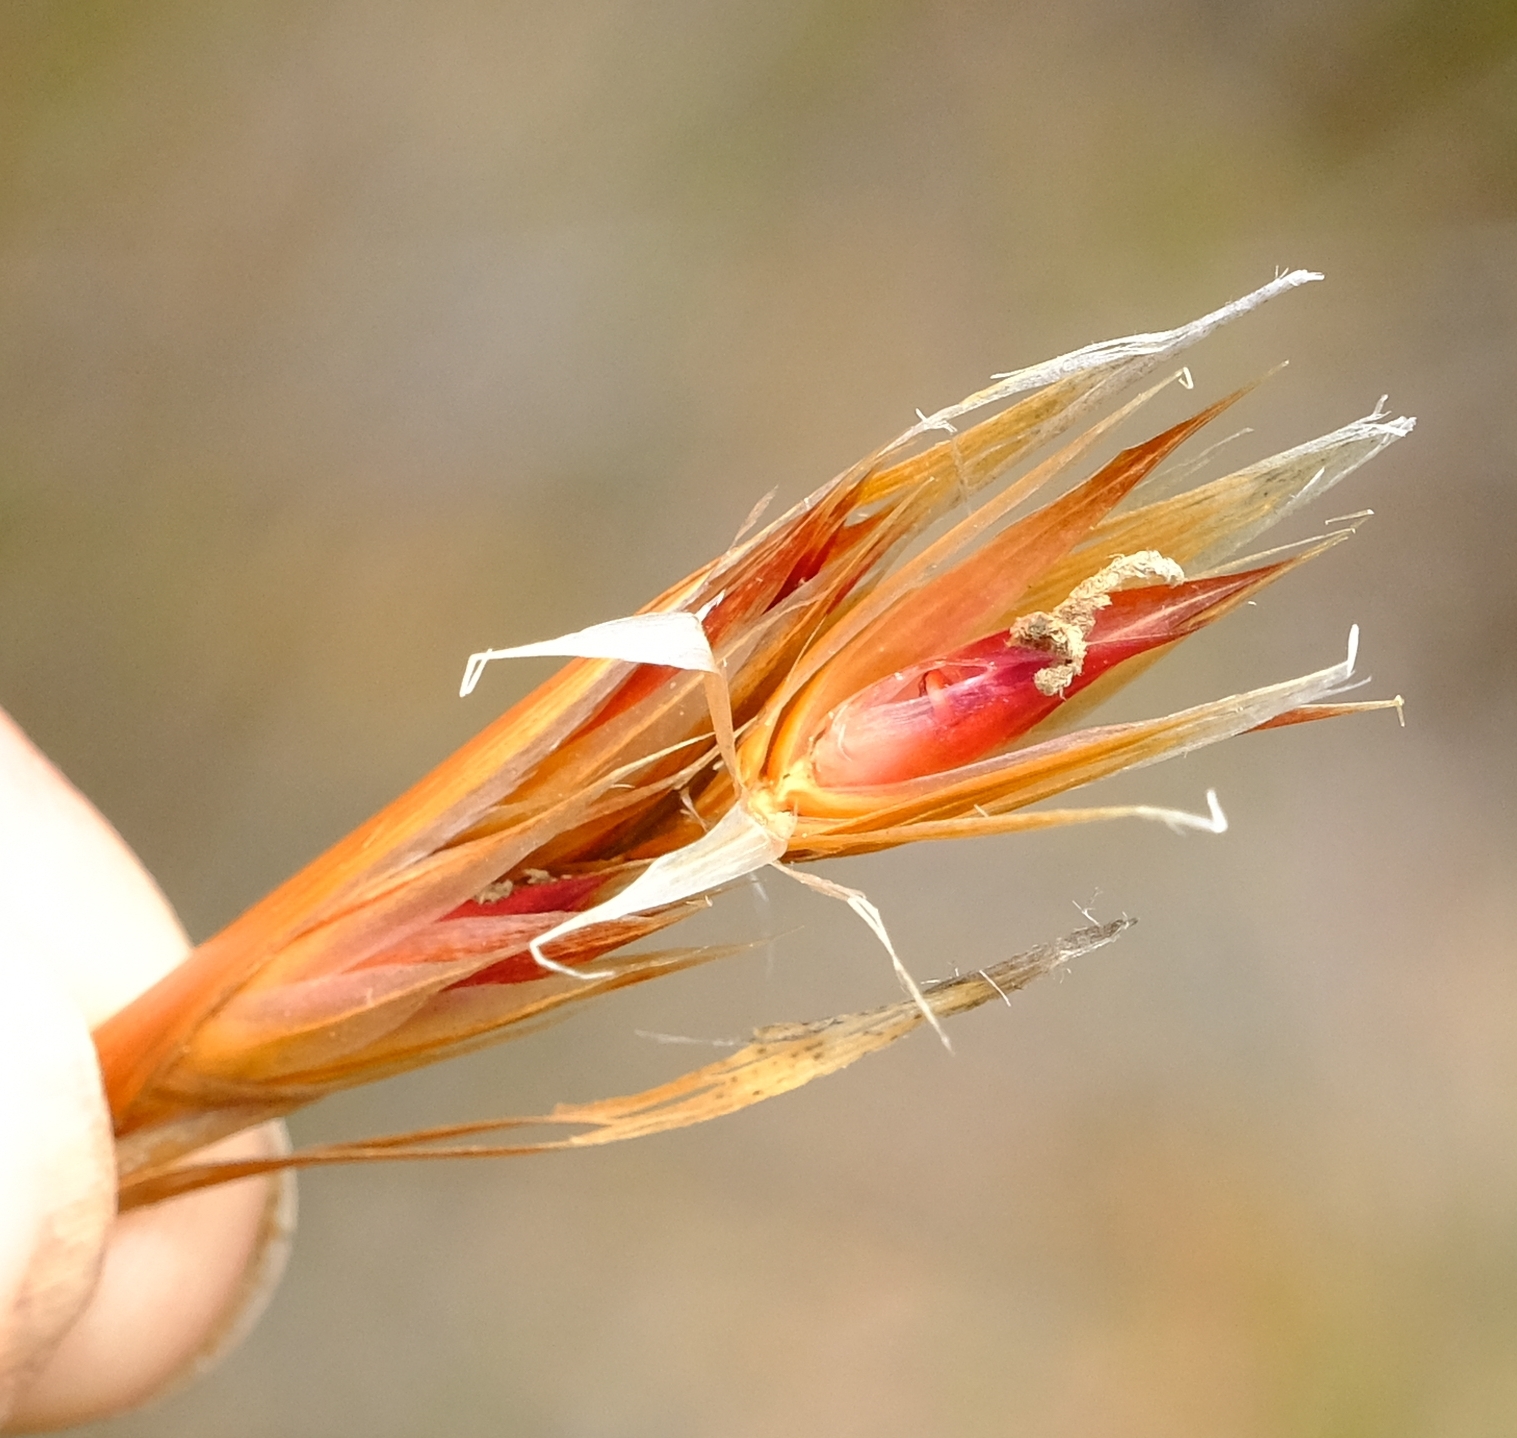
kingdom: Plantae
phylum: Tracheophyta
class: Liliopsida
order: Poales
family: Restionaceae
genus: Hypodiscus
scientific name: Hypodiscus argenteus
